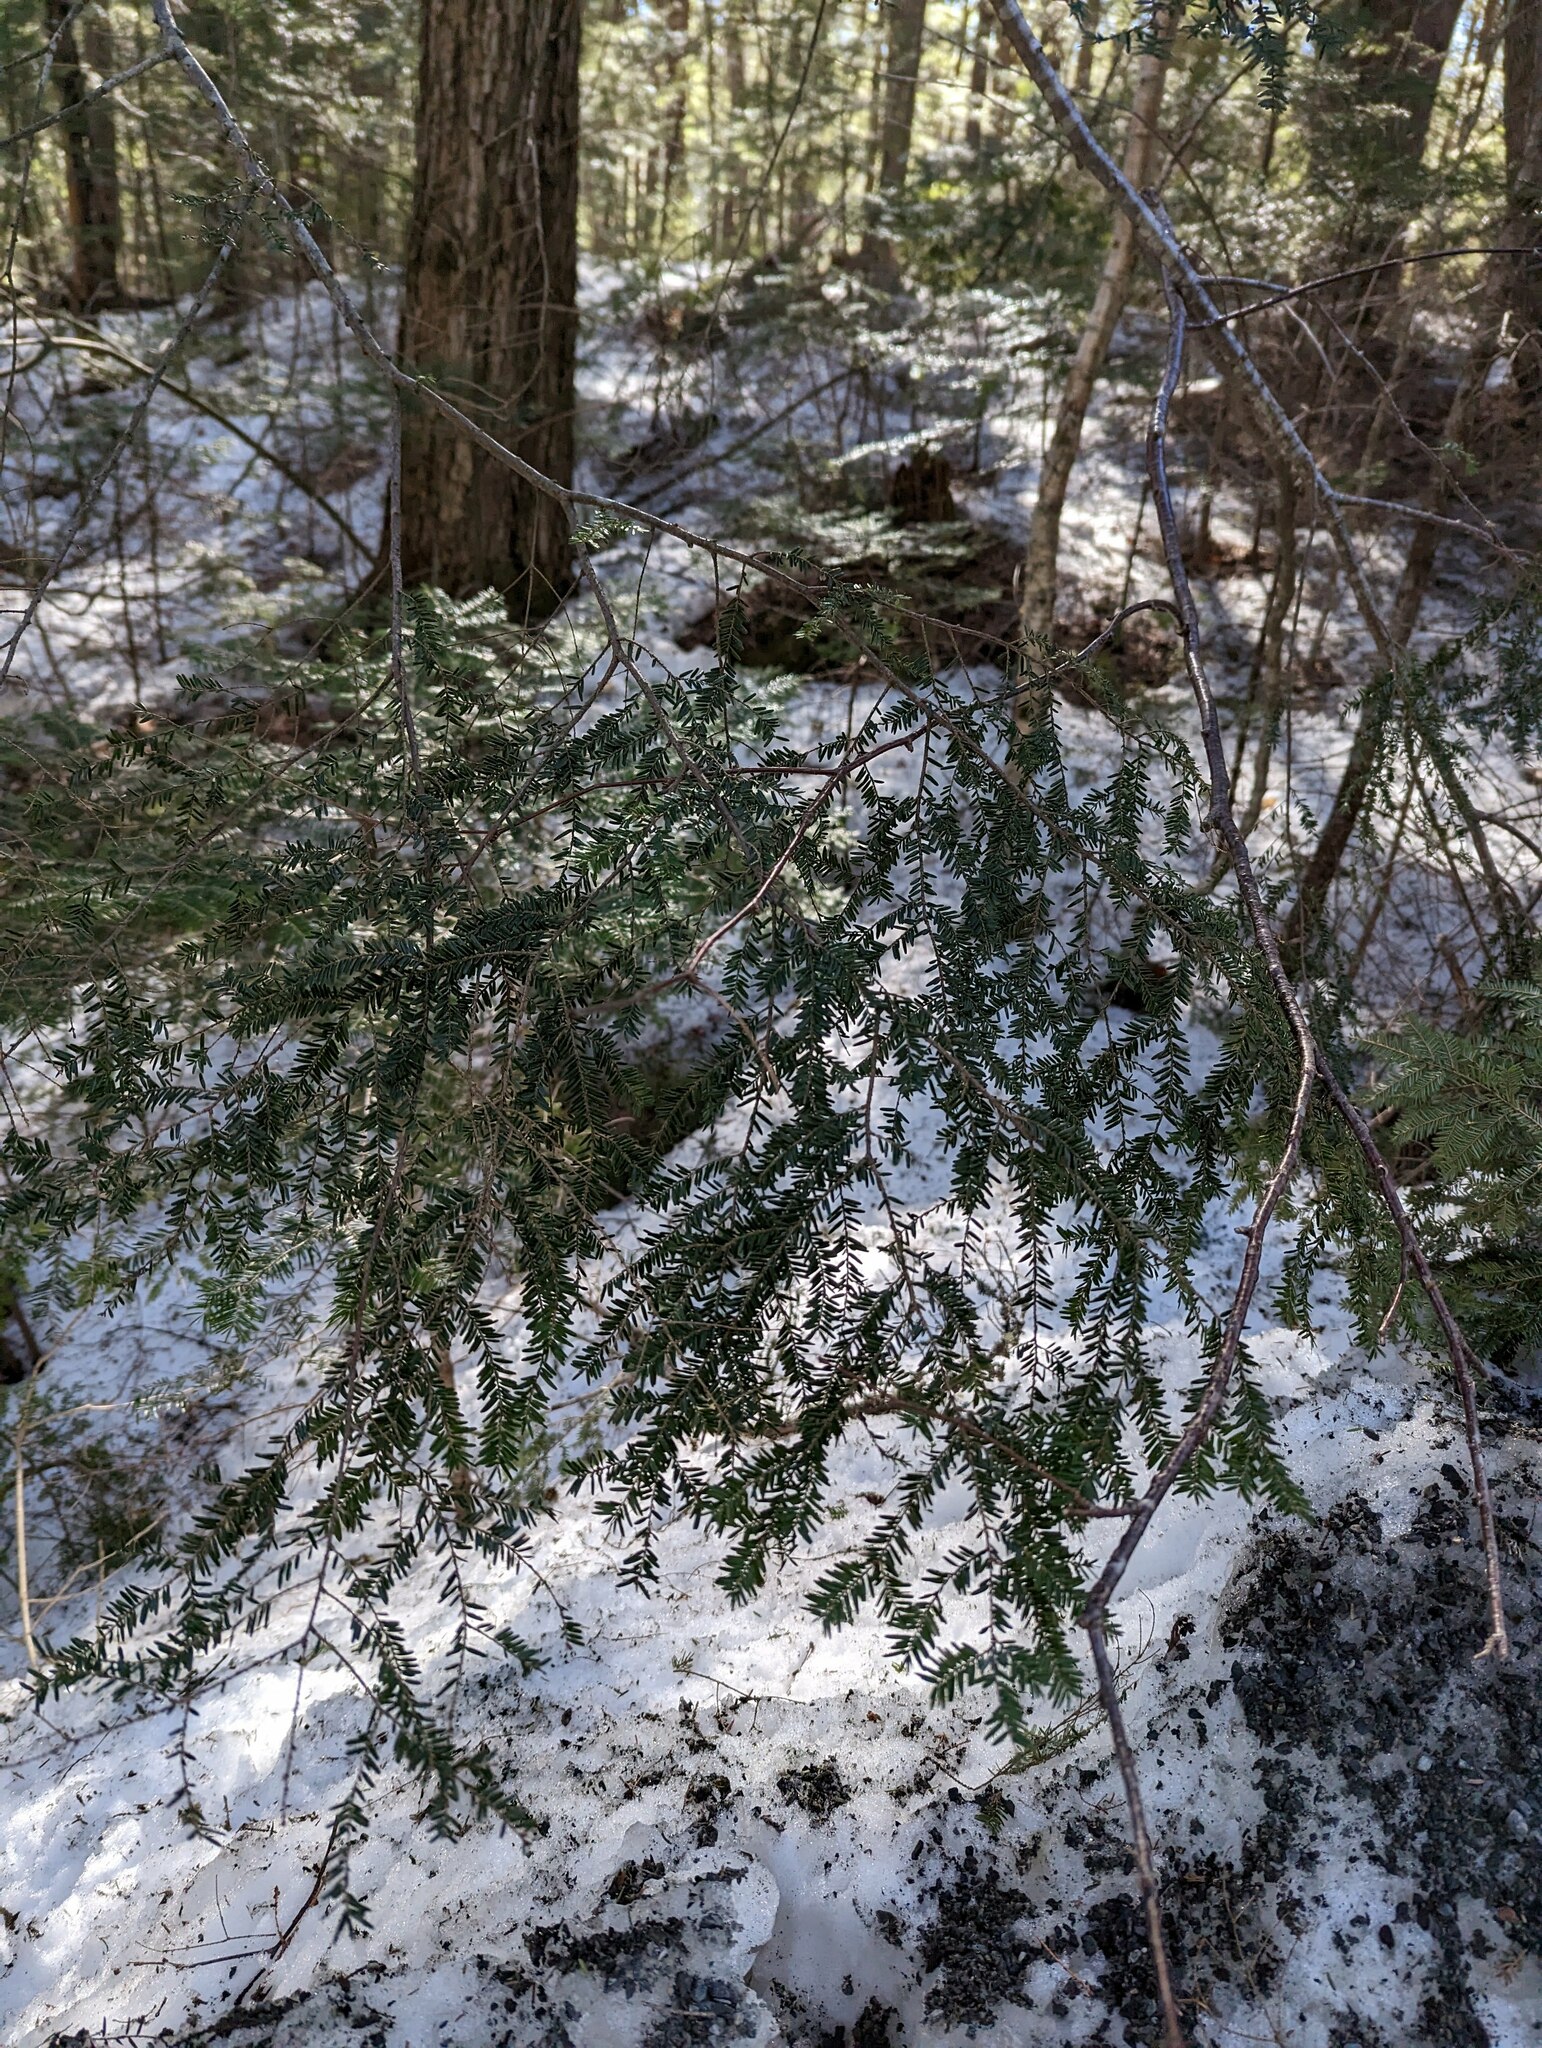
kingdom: Plantae
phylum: Tracheophyta
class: Pinopsida
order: Pinales
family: Pinaceae
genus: Tsuga
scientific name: Tsuga canadensis
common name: Eastern hemlock
